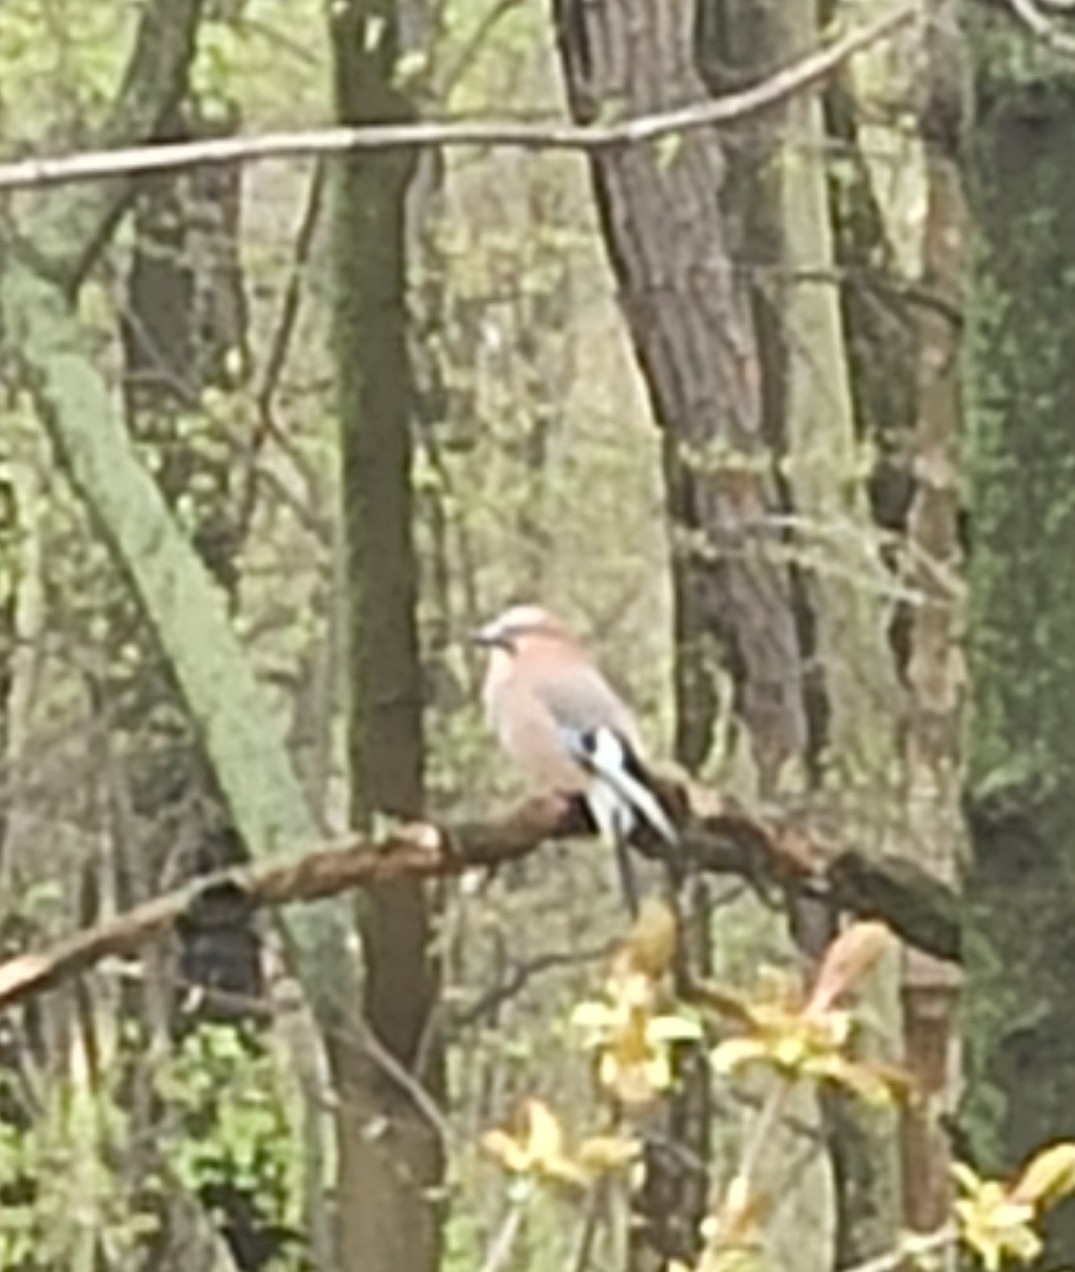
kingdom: Animalia
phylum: Chordata
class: Aves
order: Passeriformes
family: Corvidae
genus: Garrulus
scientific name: Garrulus glandarius
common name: Eurasian jay
